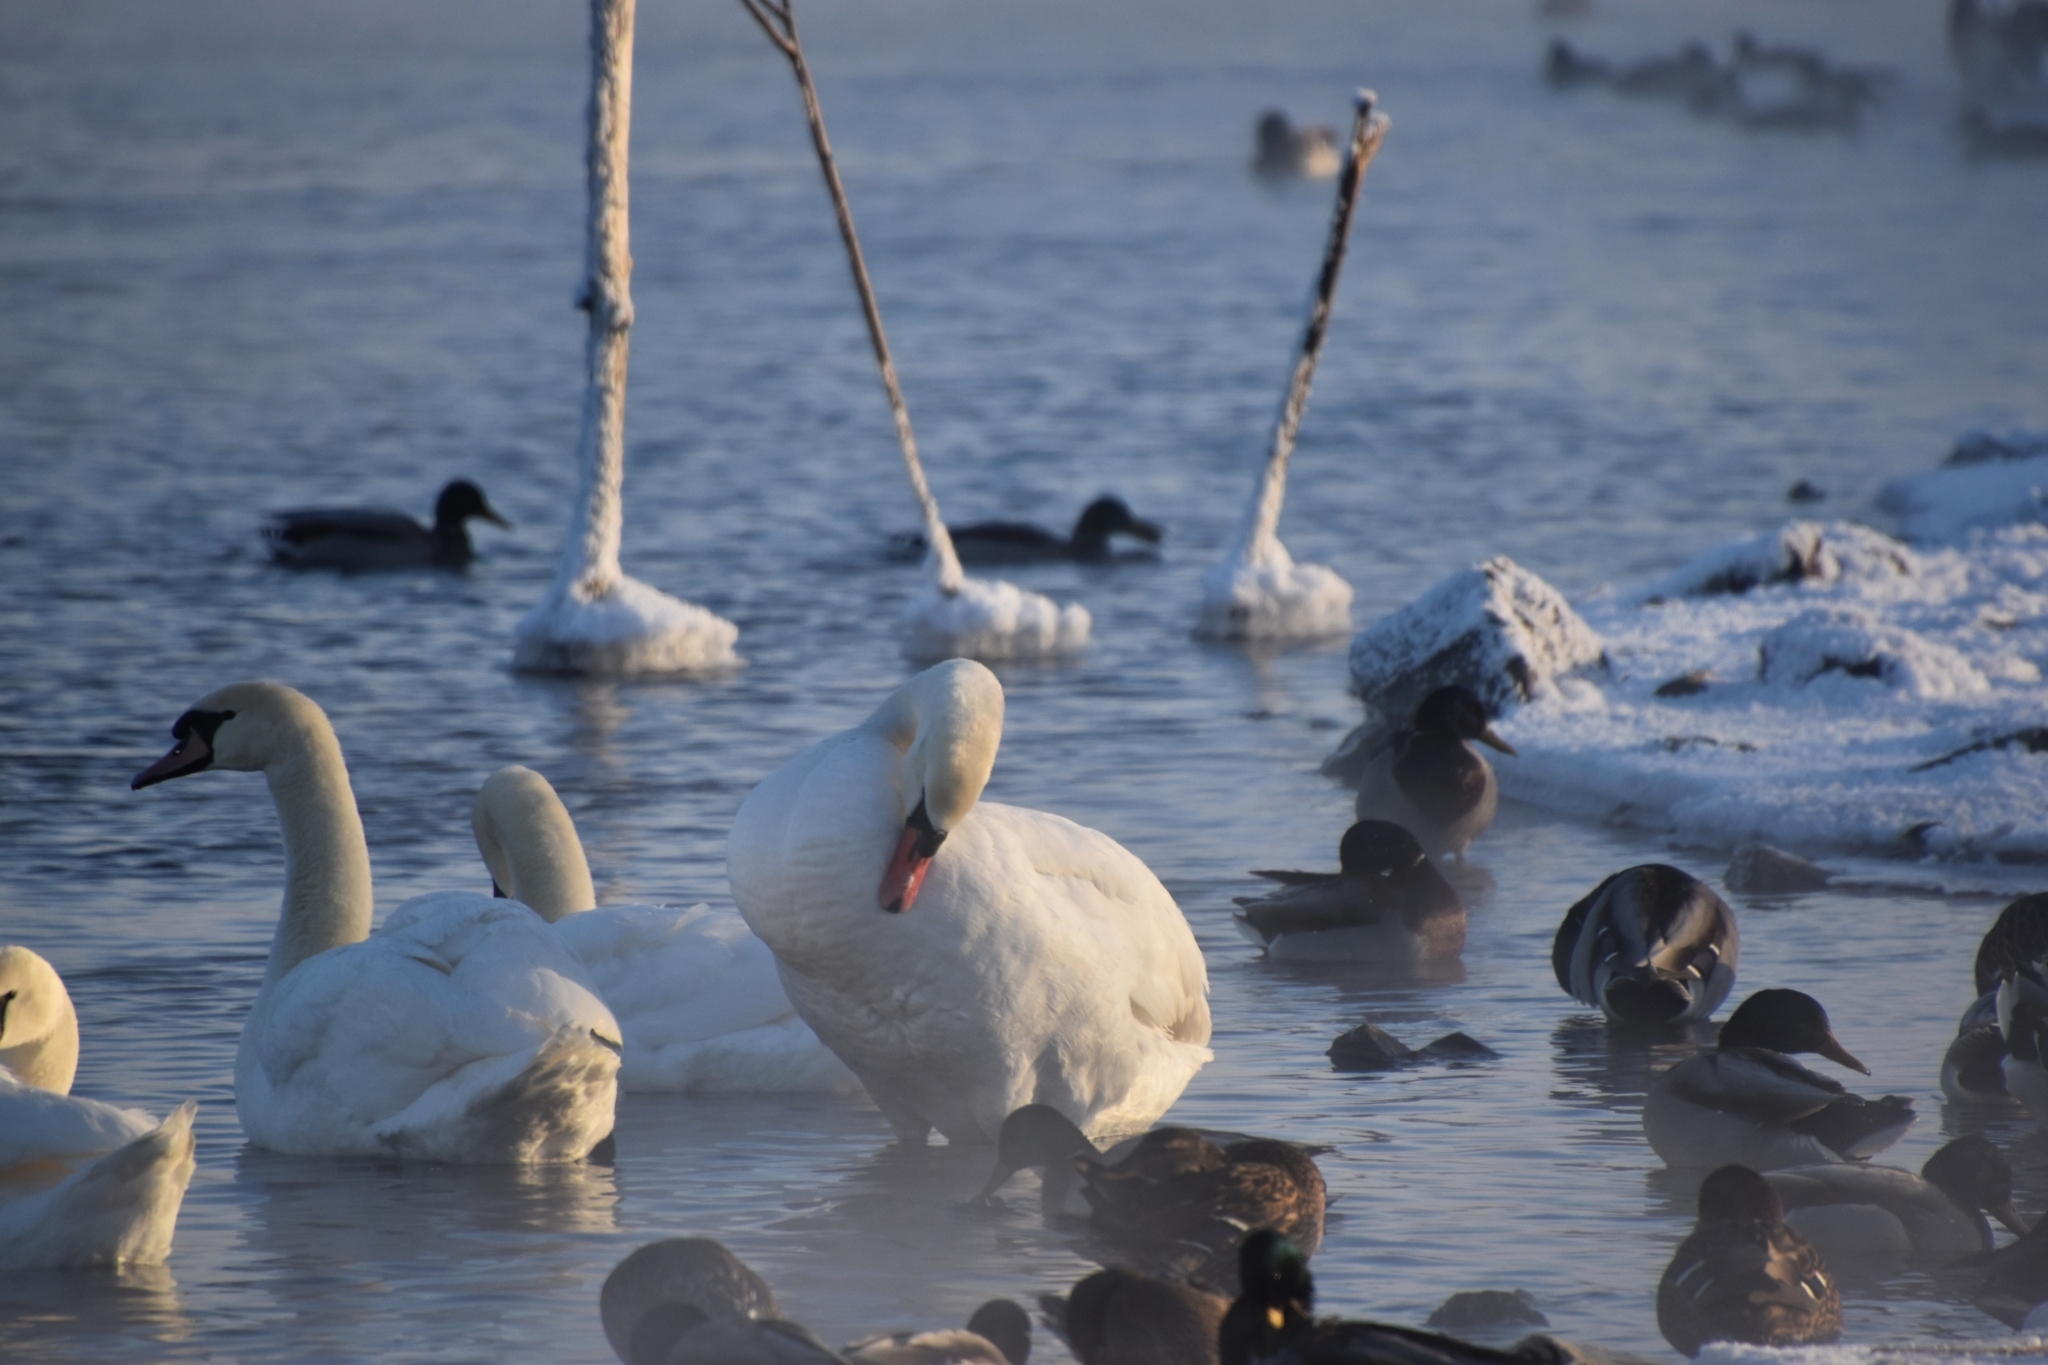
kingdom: Animalia
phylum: Chordata
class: Aves
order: Anseriformes
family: Anatidae
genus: Cygnus
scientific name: Cygnus olor
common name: Mute swan
